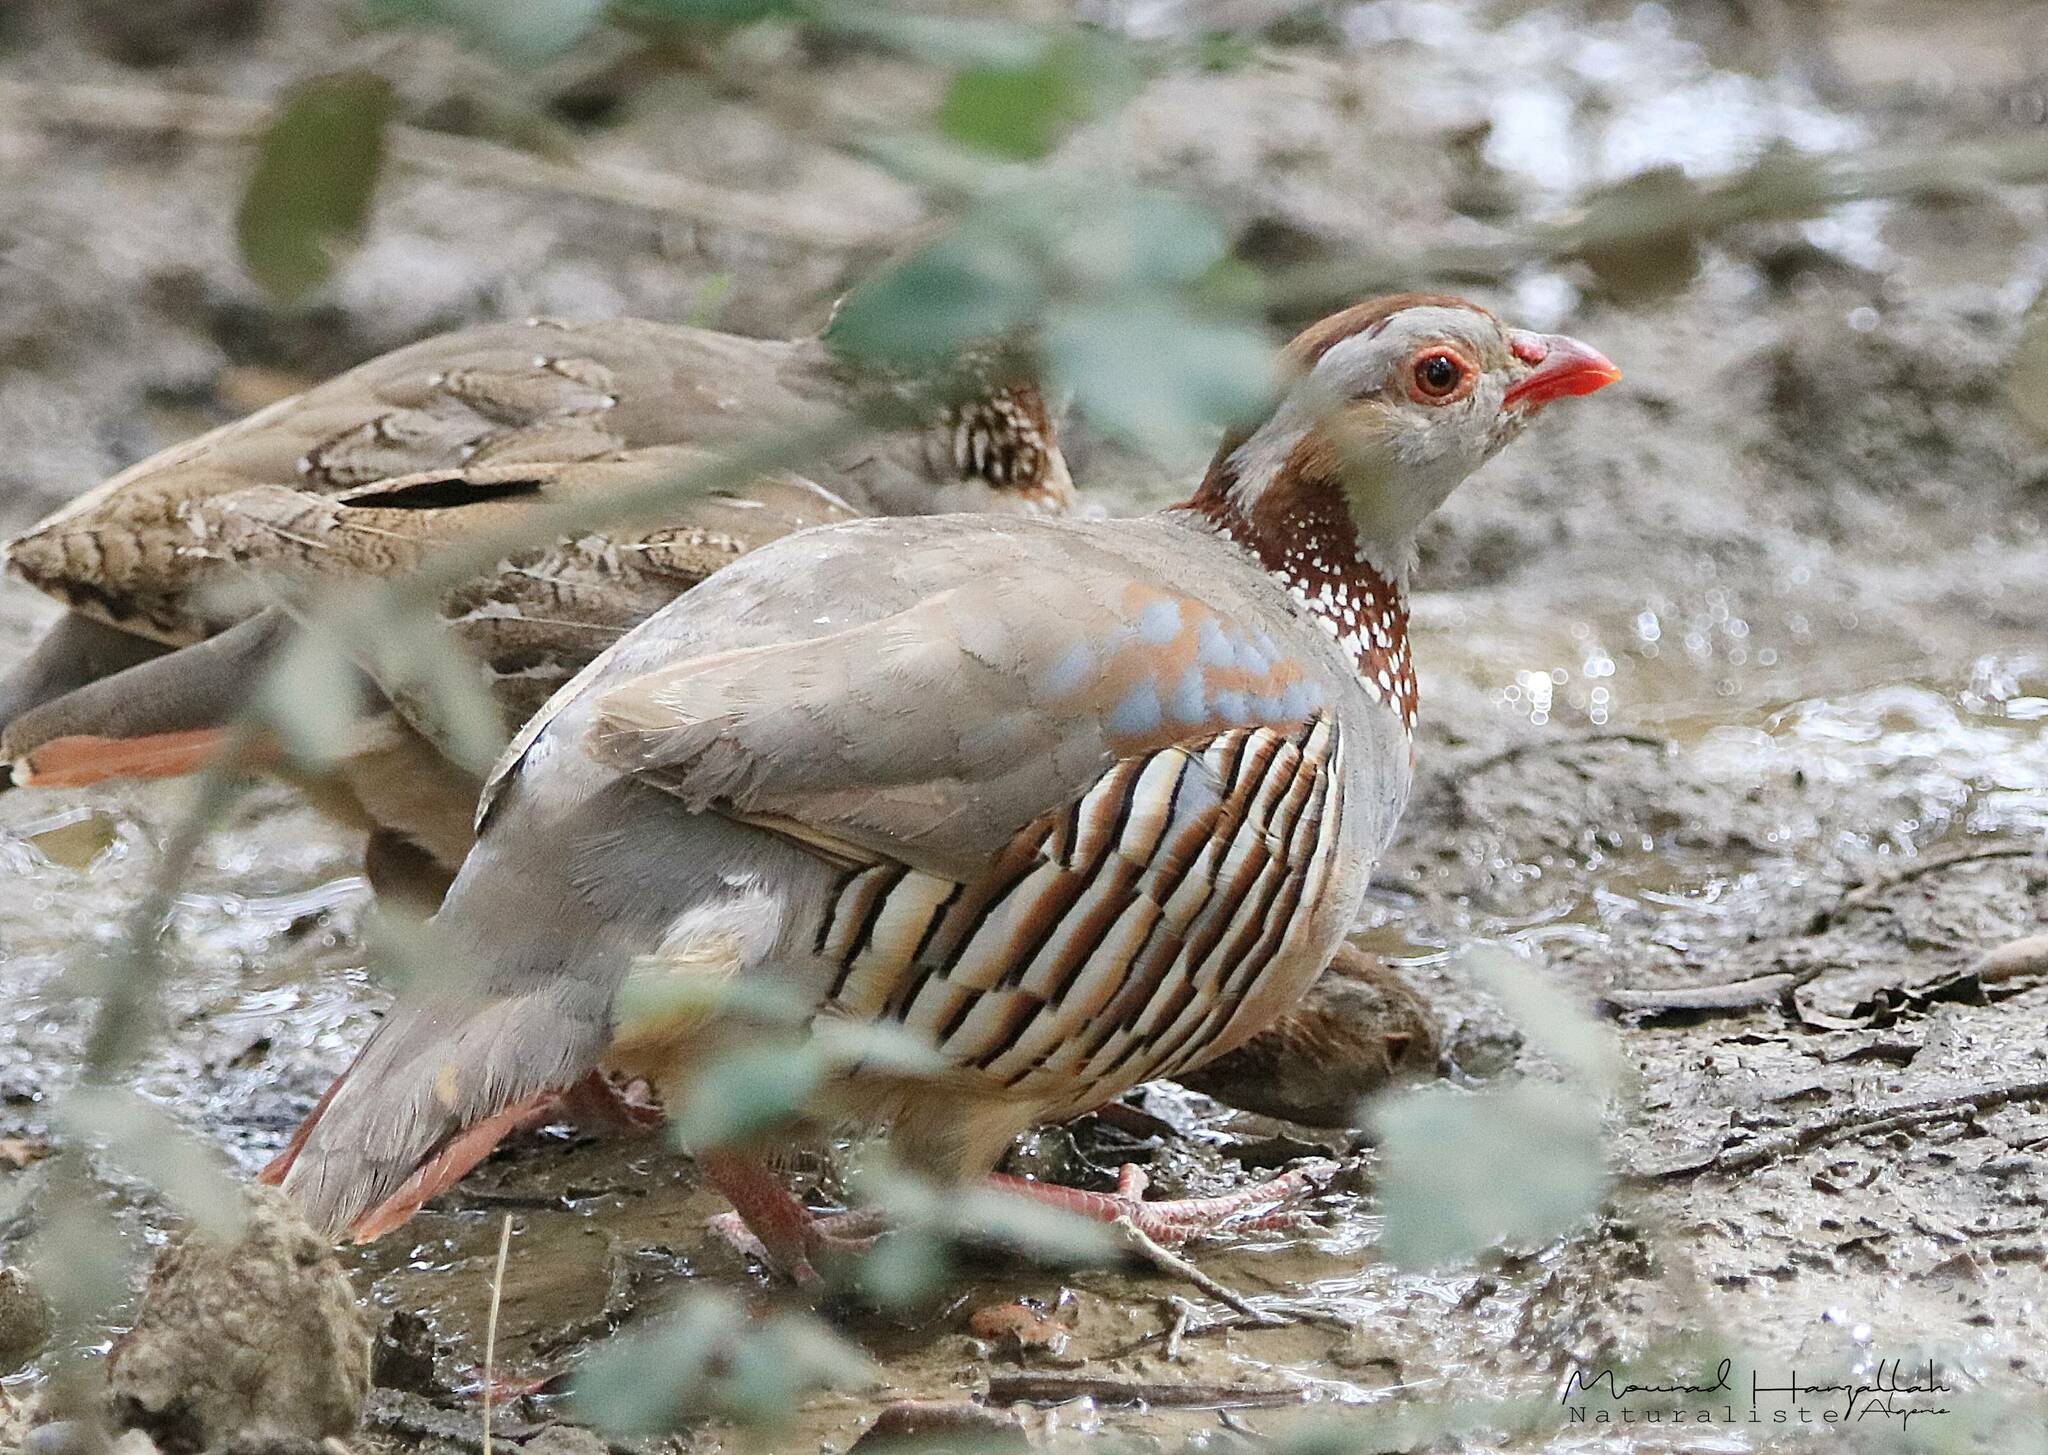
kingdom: Animalia
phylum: Chordata
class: Aves
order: Galliformes
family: Phasianidae
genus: Alectoris
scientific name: Alectoris barbara
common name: Barbary partridge
